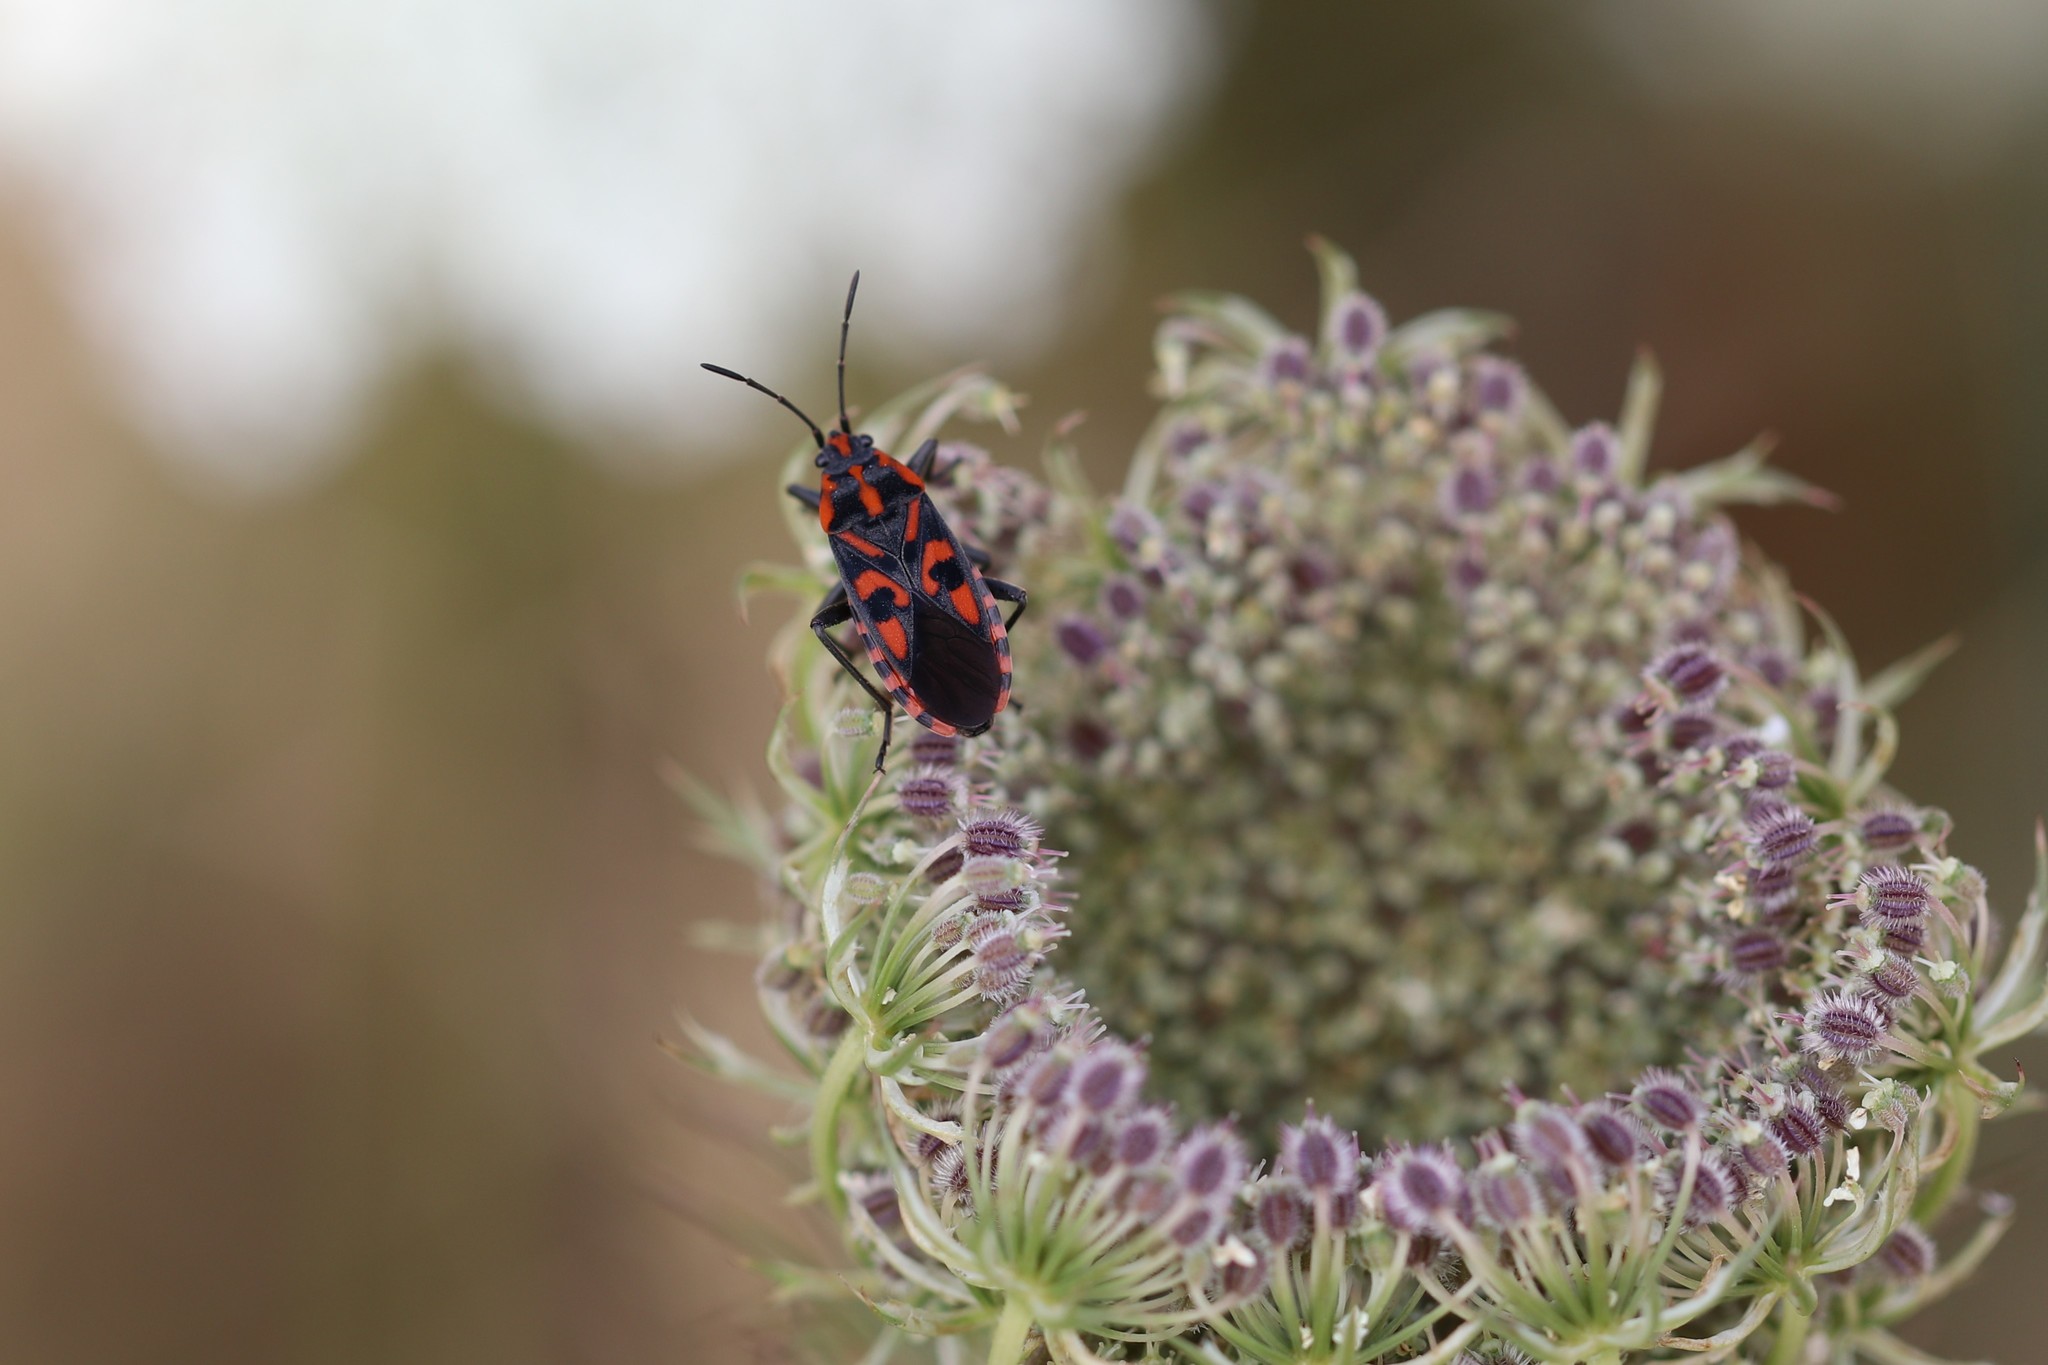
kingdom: Animalia
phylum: Arthropoda
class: Insecta
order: Hemiptera
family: Lygaeidae
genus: Spilostethus
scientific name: Spilostethus saxatilis
